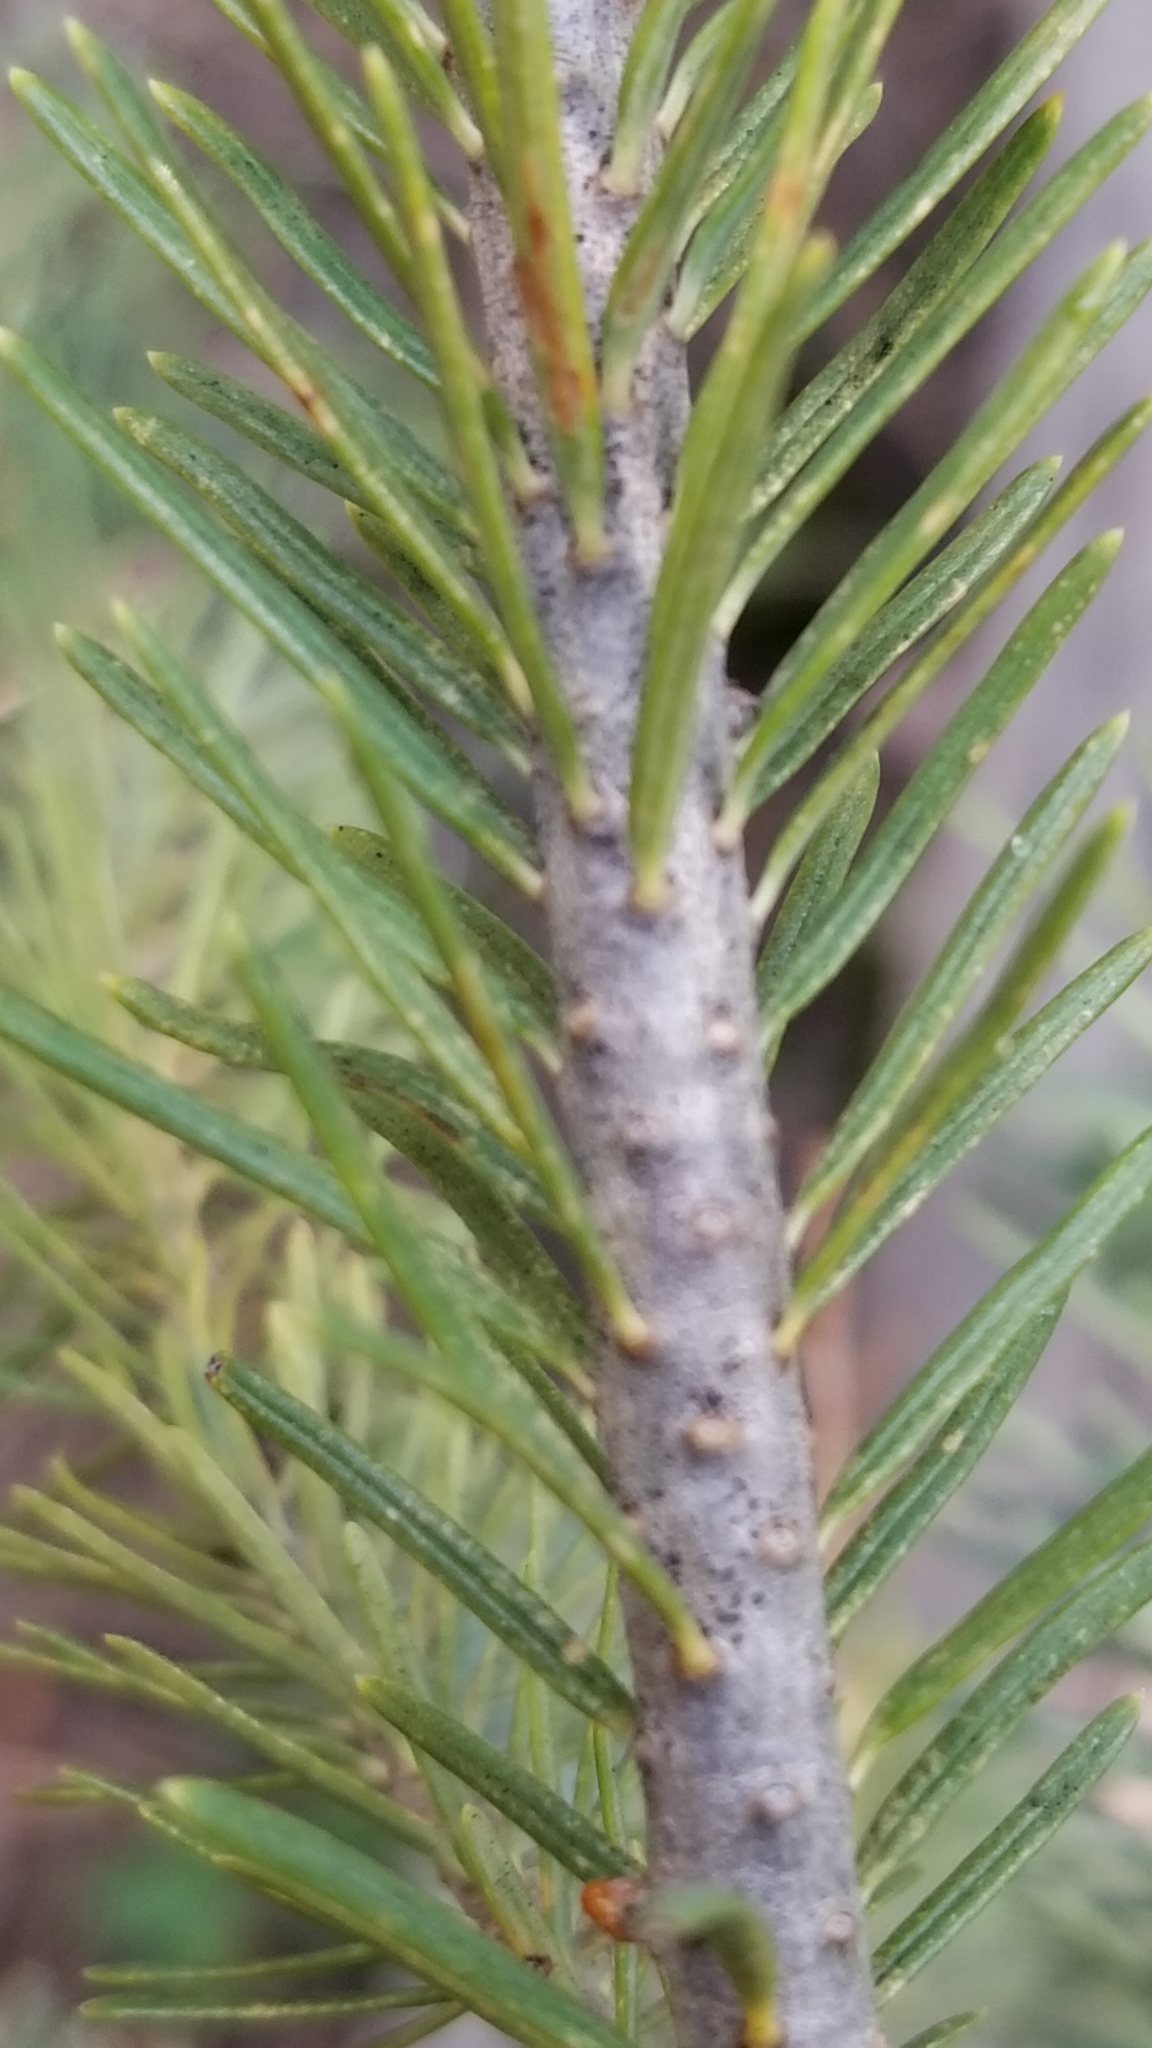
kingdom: Plantae
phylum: Tracheophyta
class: Pinopsida
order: Pinales
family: Pinaceae
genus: Pseudotsuga
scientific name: Pseudotsuga menziesii
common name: Douglas fir
